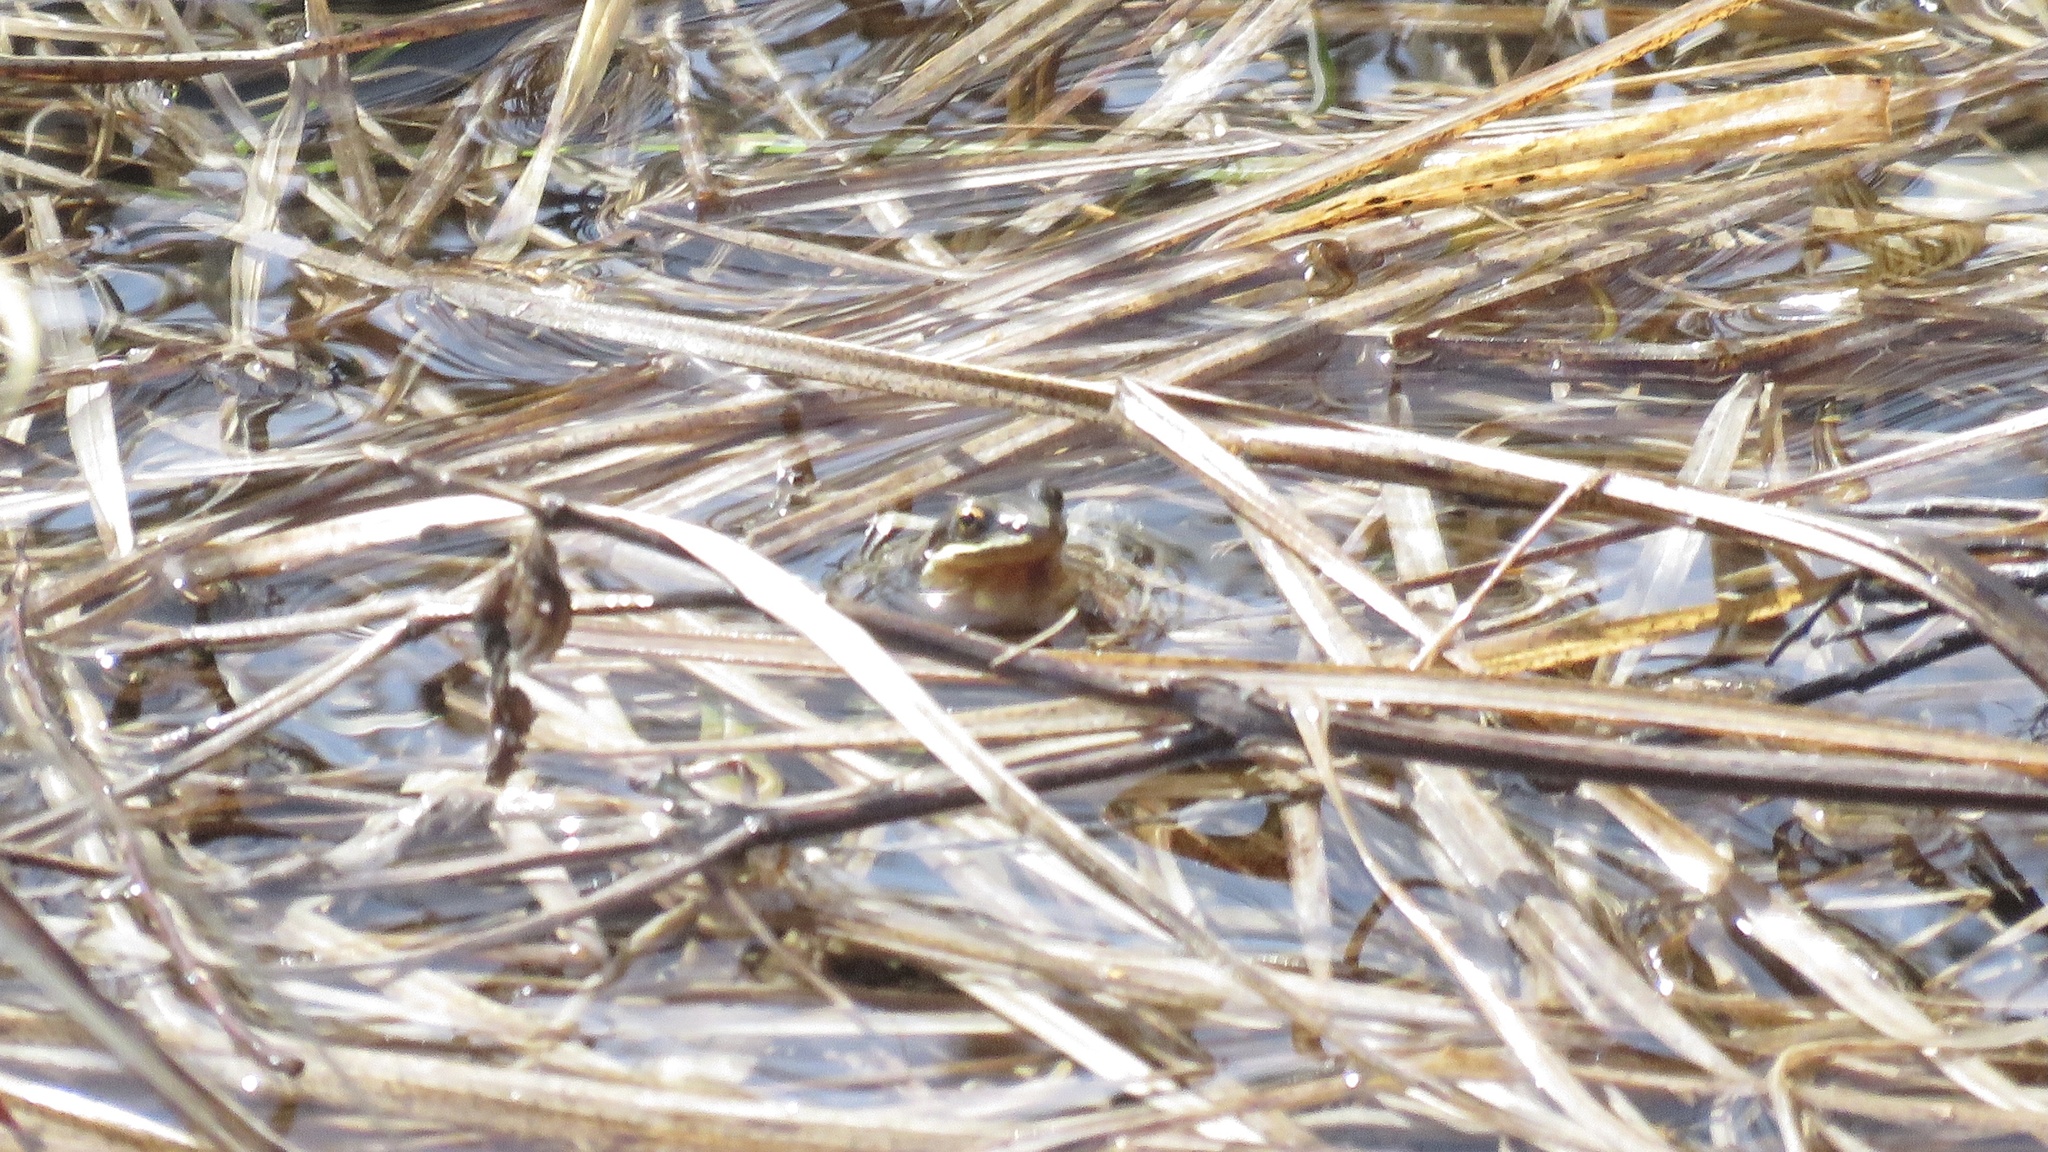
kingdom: Animalia
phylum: Chordata
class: Amphibia
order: Anura
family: Hylidae
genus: Pseudacris
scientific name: Pseudacris maculata
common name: Boreal chorus frog
